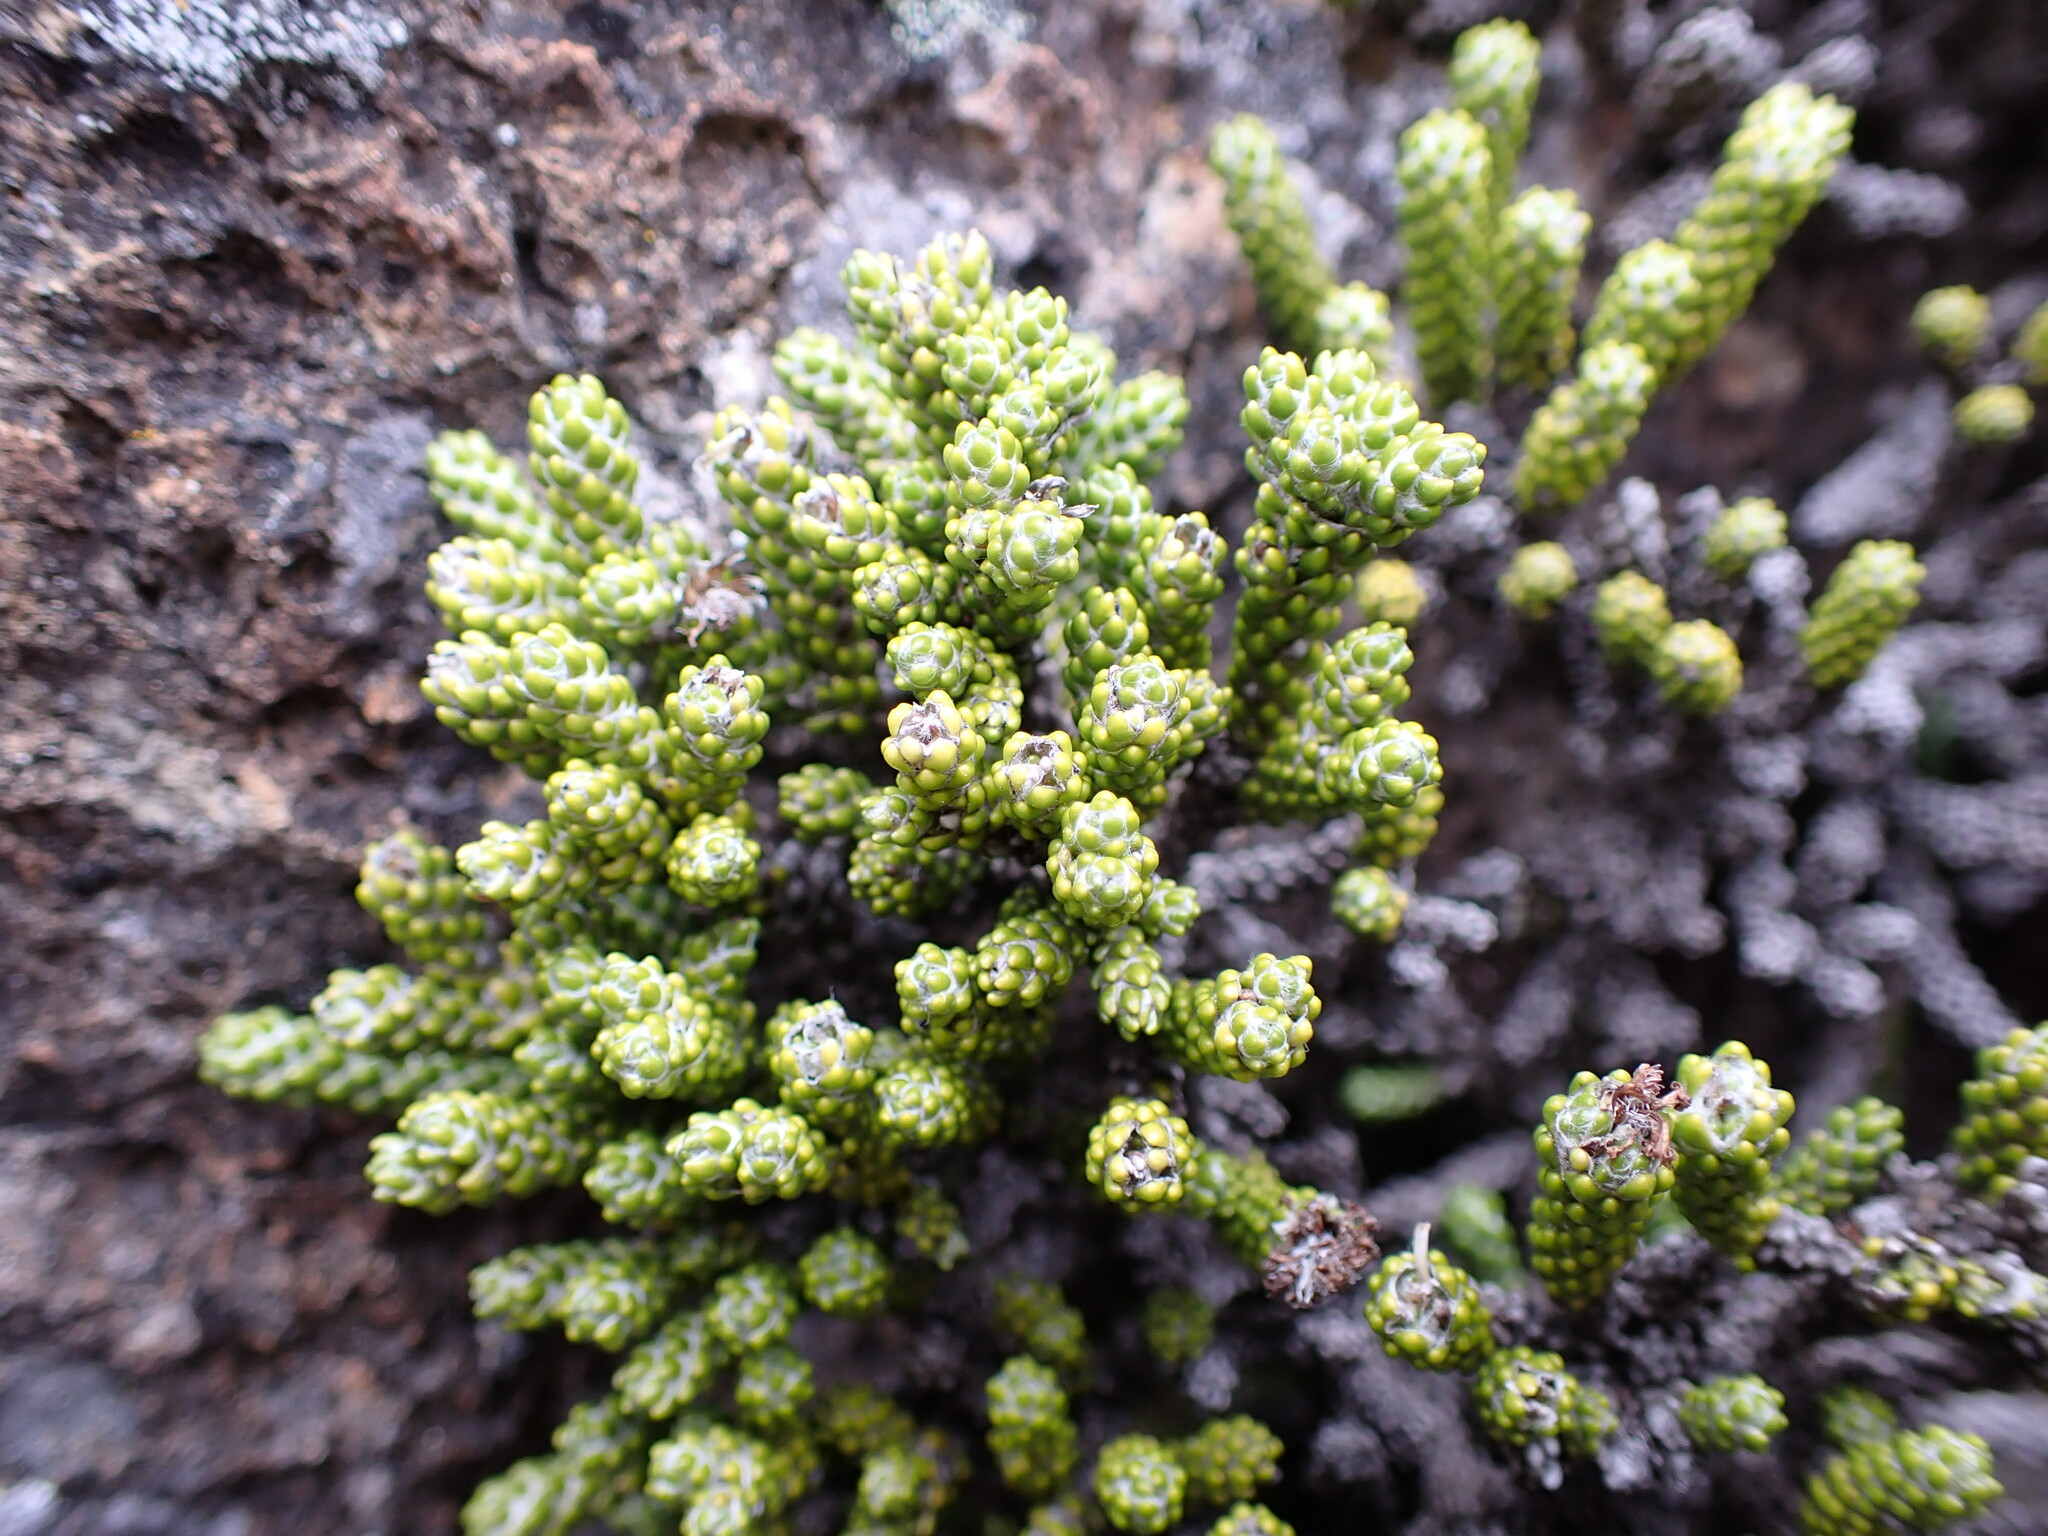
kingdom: Plantae
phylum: Tracheophyta
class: Magnoliopsida
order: Asterales
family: Asteraceae
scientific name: Asteraceae
